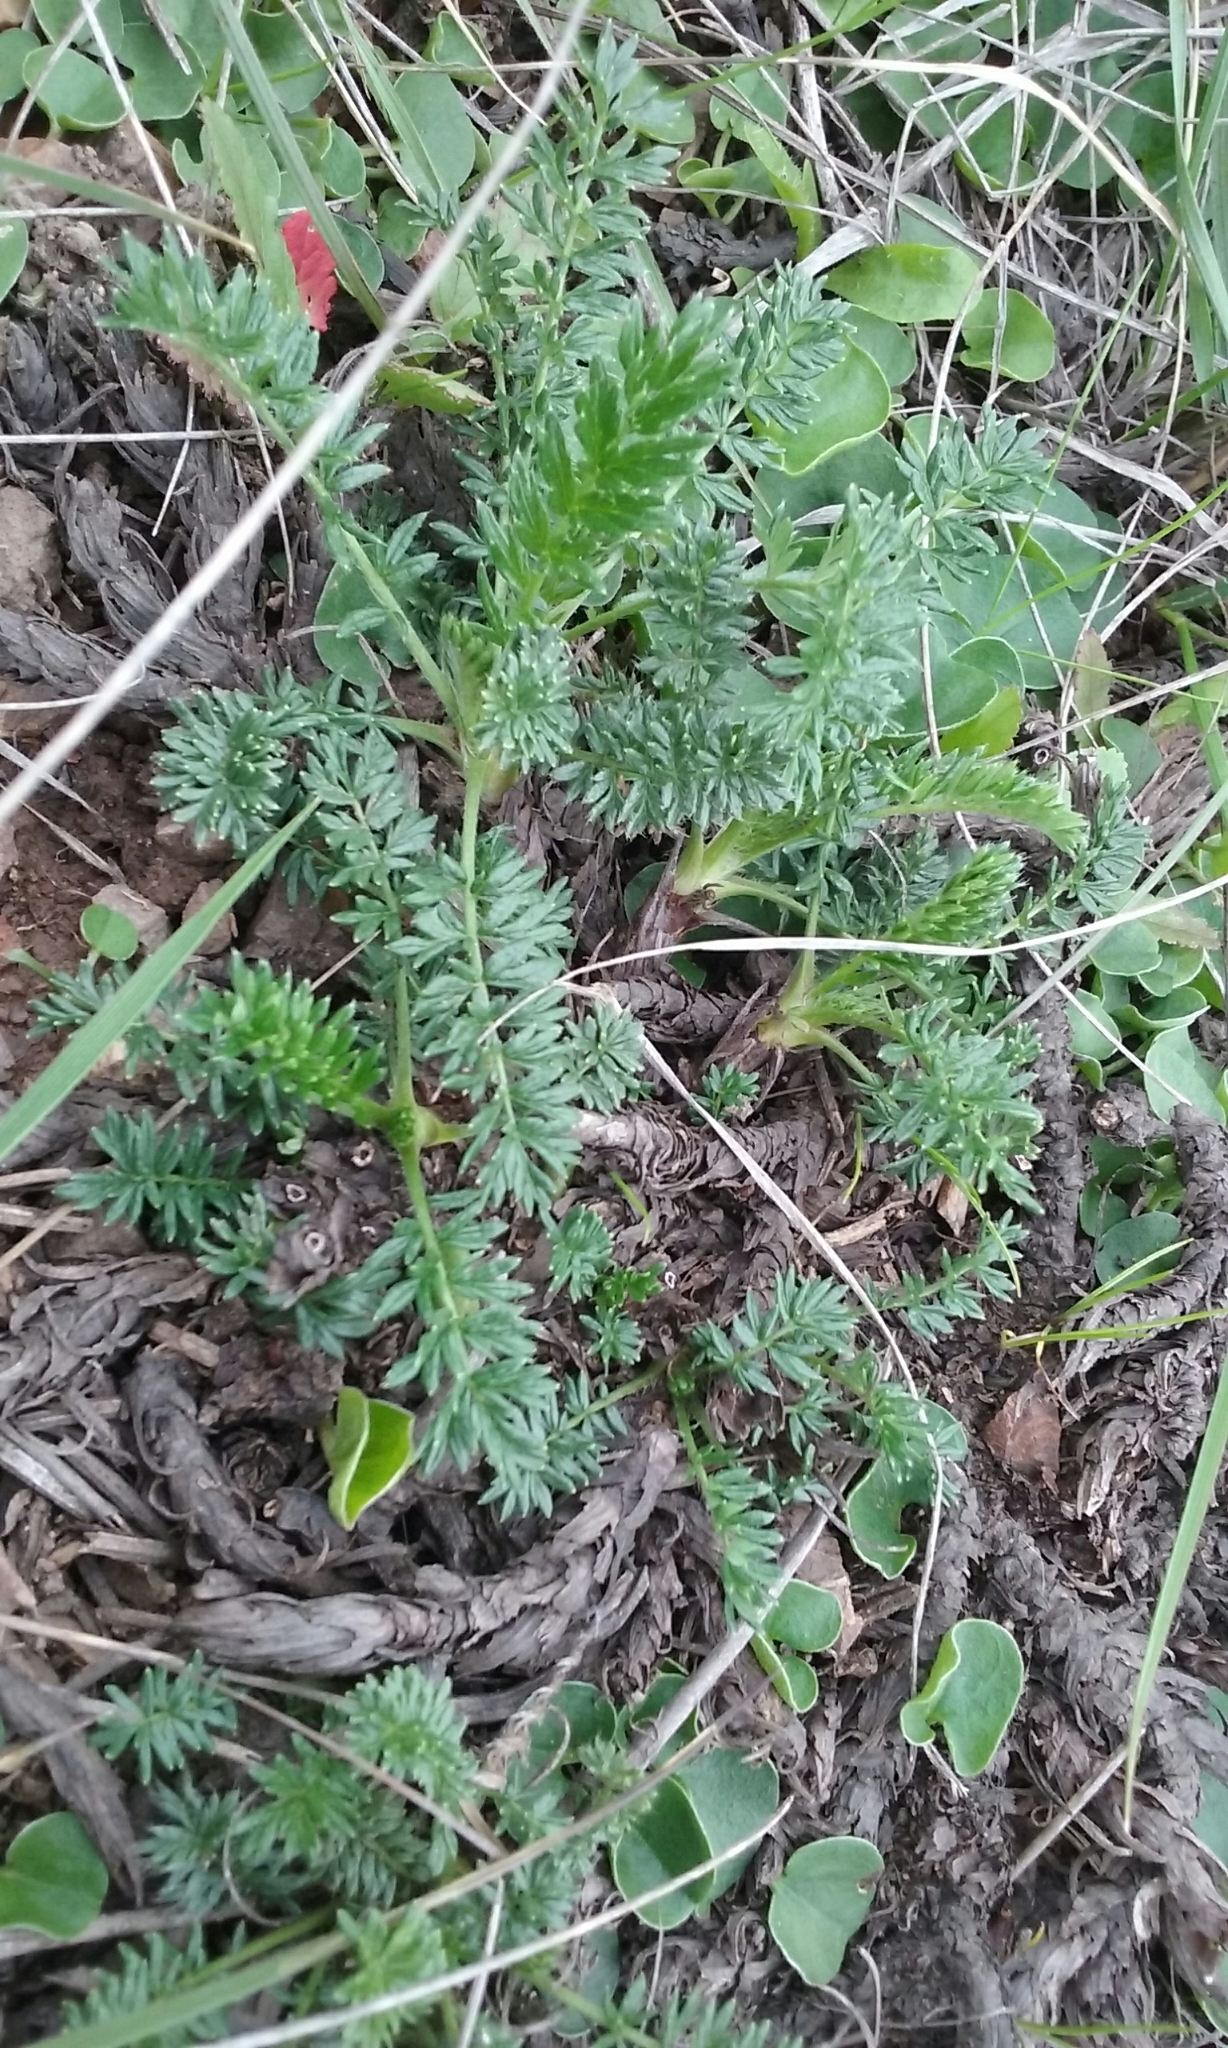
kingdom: Plantae
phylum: Tracheophyta
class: Magnoliopsida
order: Rosales
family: Rosaceae
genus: Acaena
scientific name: Acaena pinnatifida
